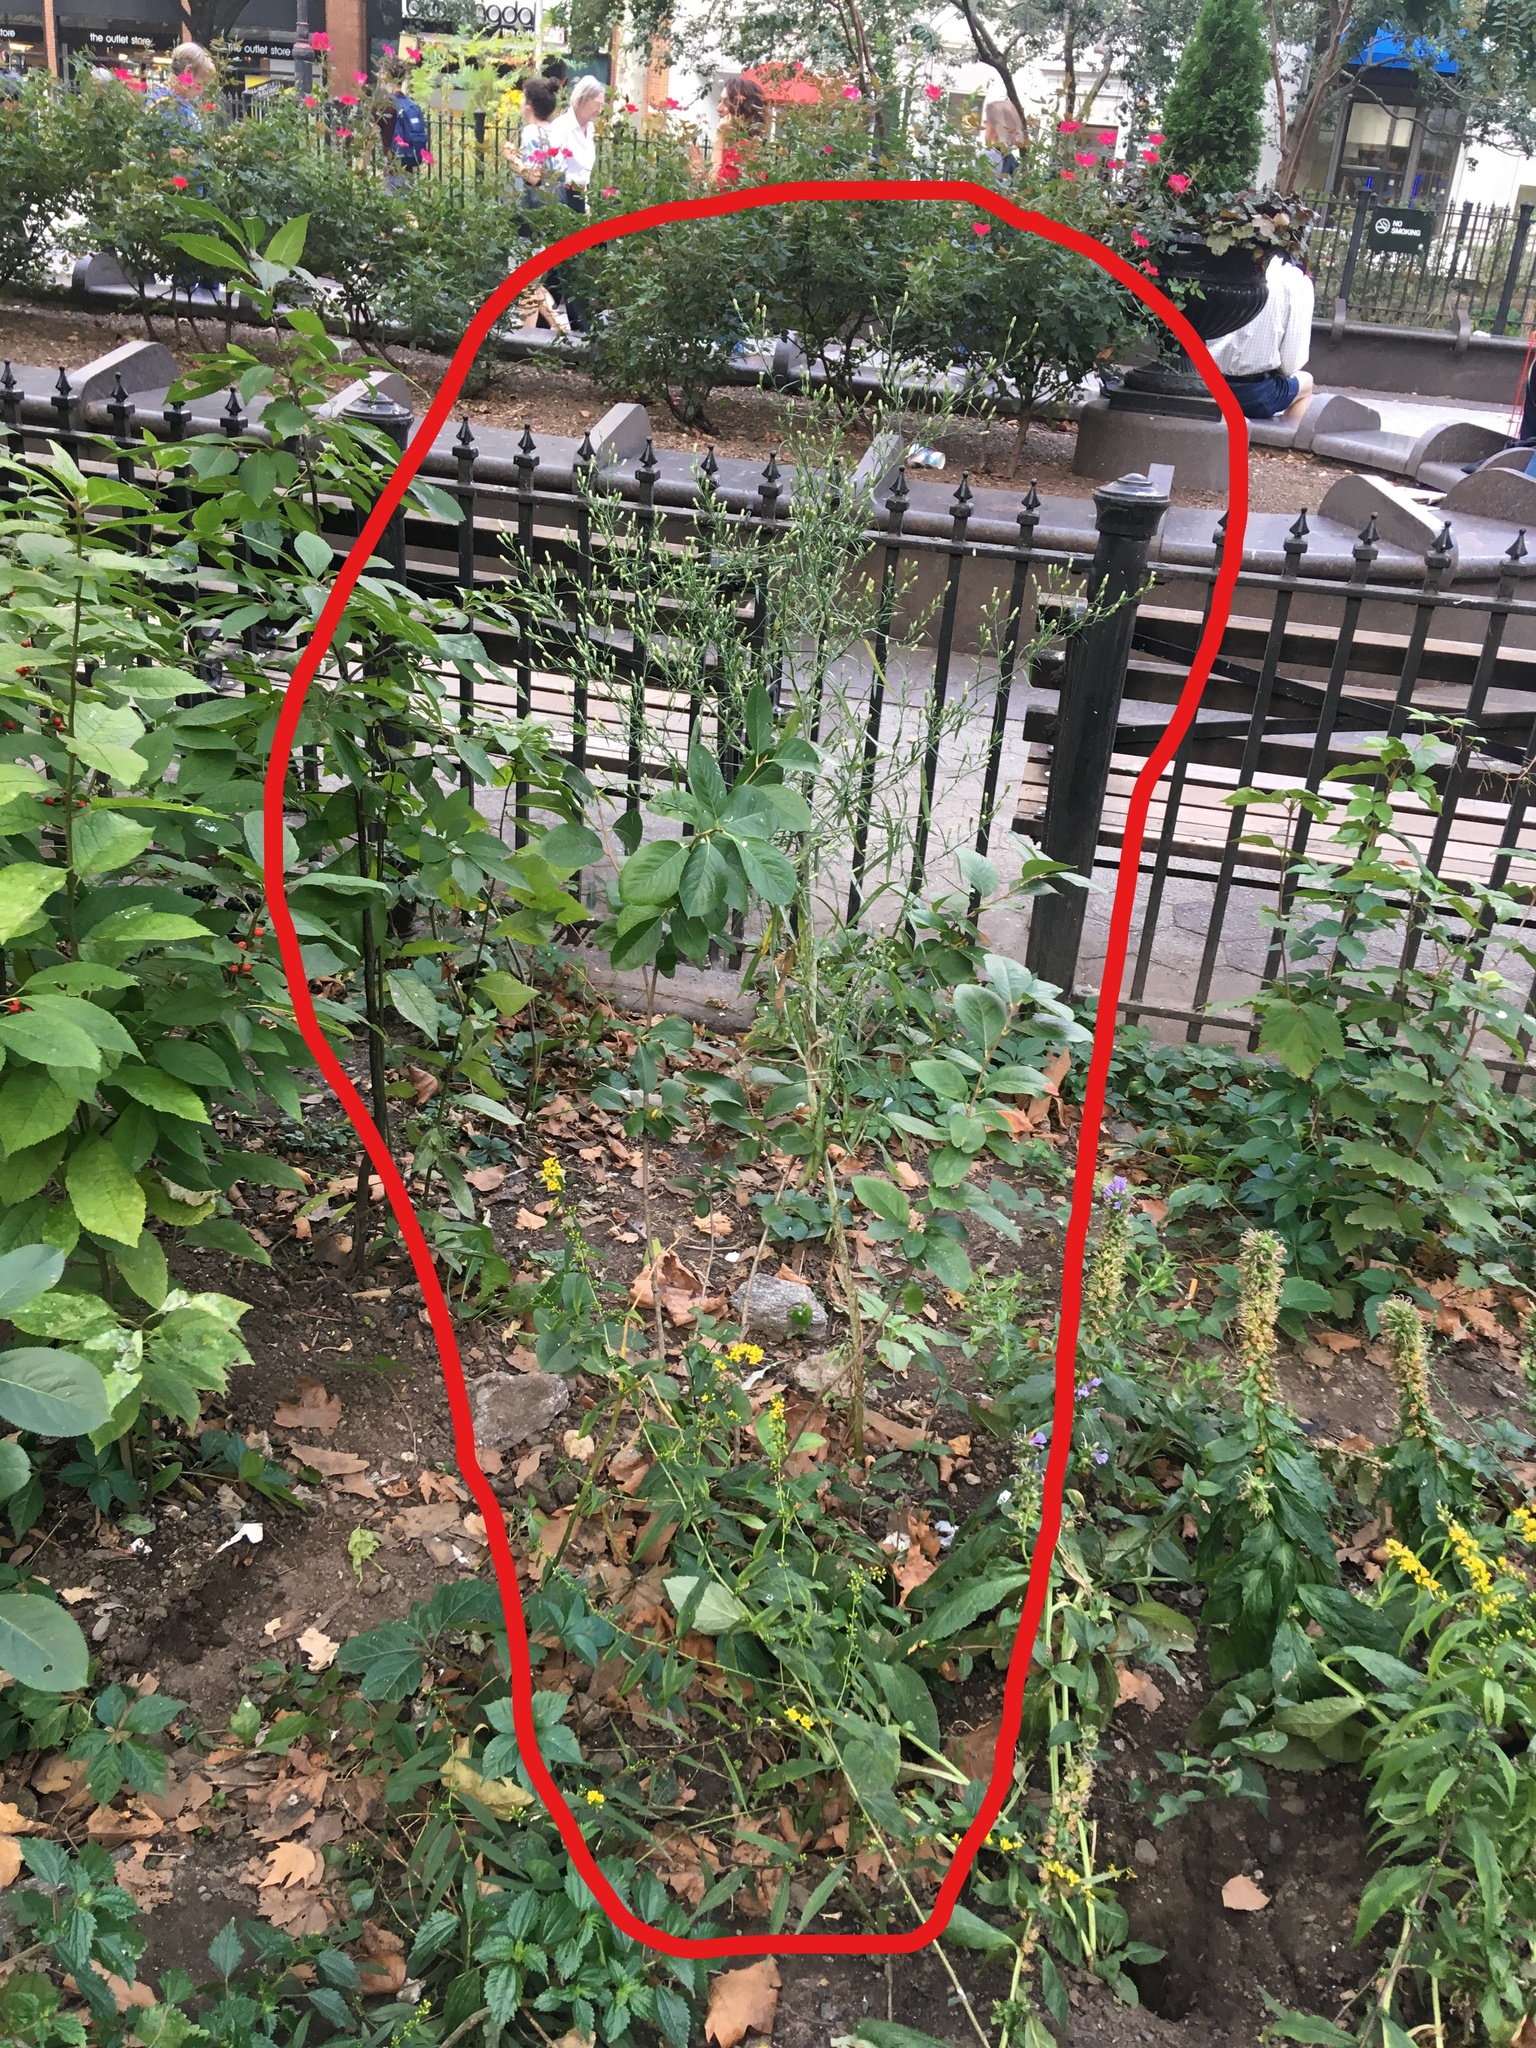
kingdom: Plantae
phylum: Tracheophyta
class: Magnoliopsida
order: Asterales
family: Asteraceae
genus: Symphyotrichum
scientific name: Symphyotrichum subulatum
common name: Annual saltmarsh aster
